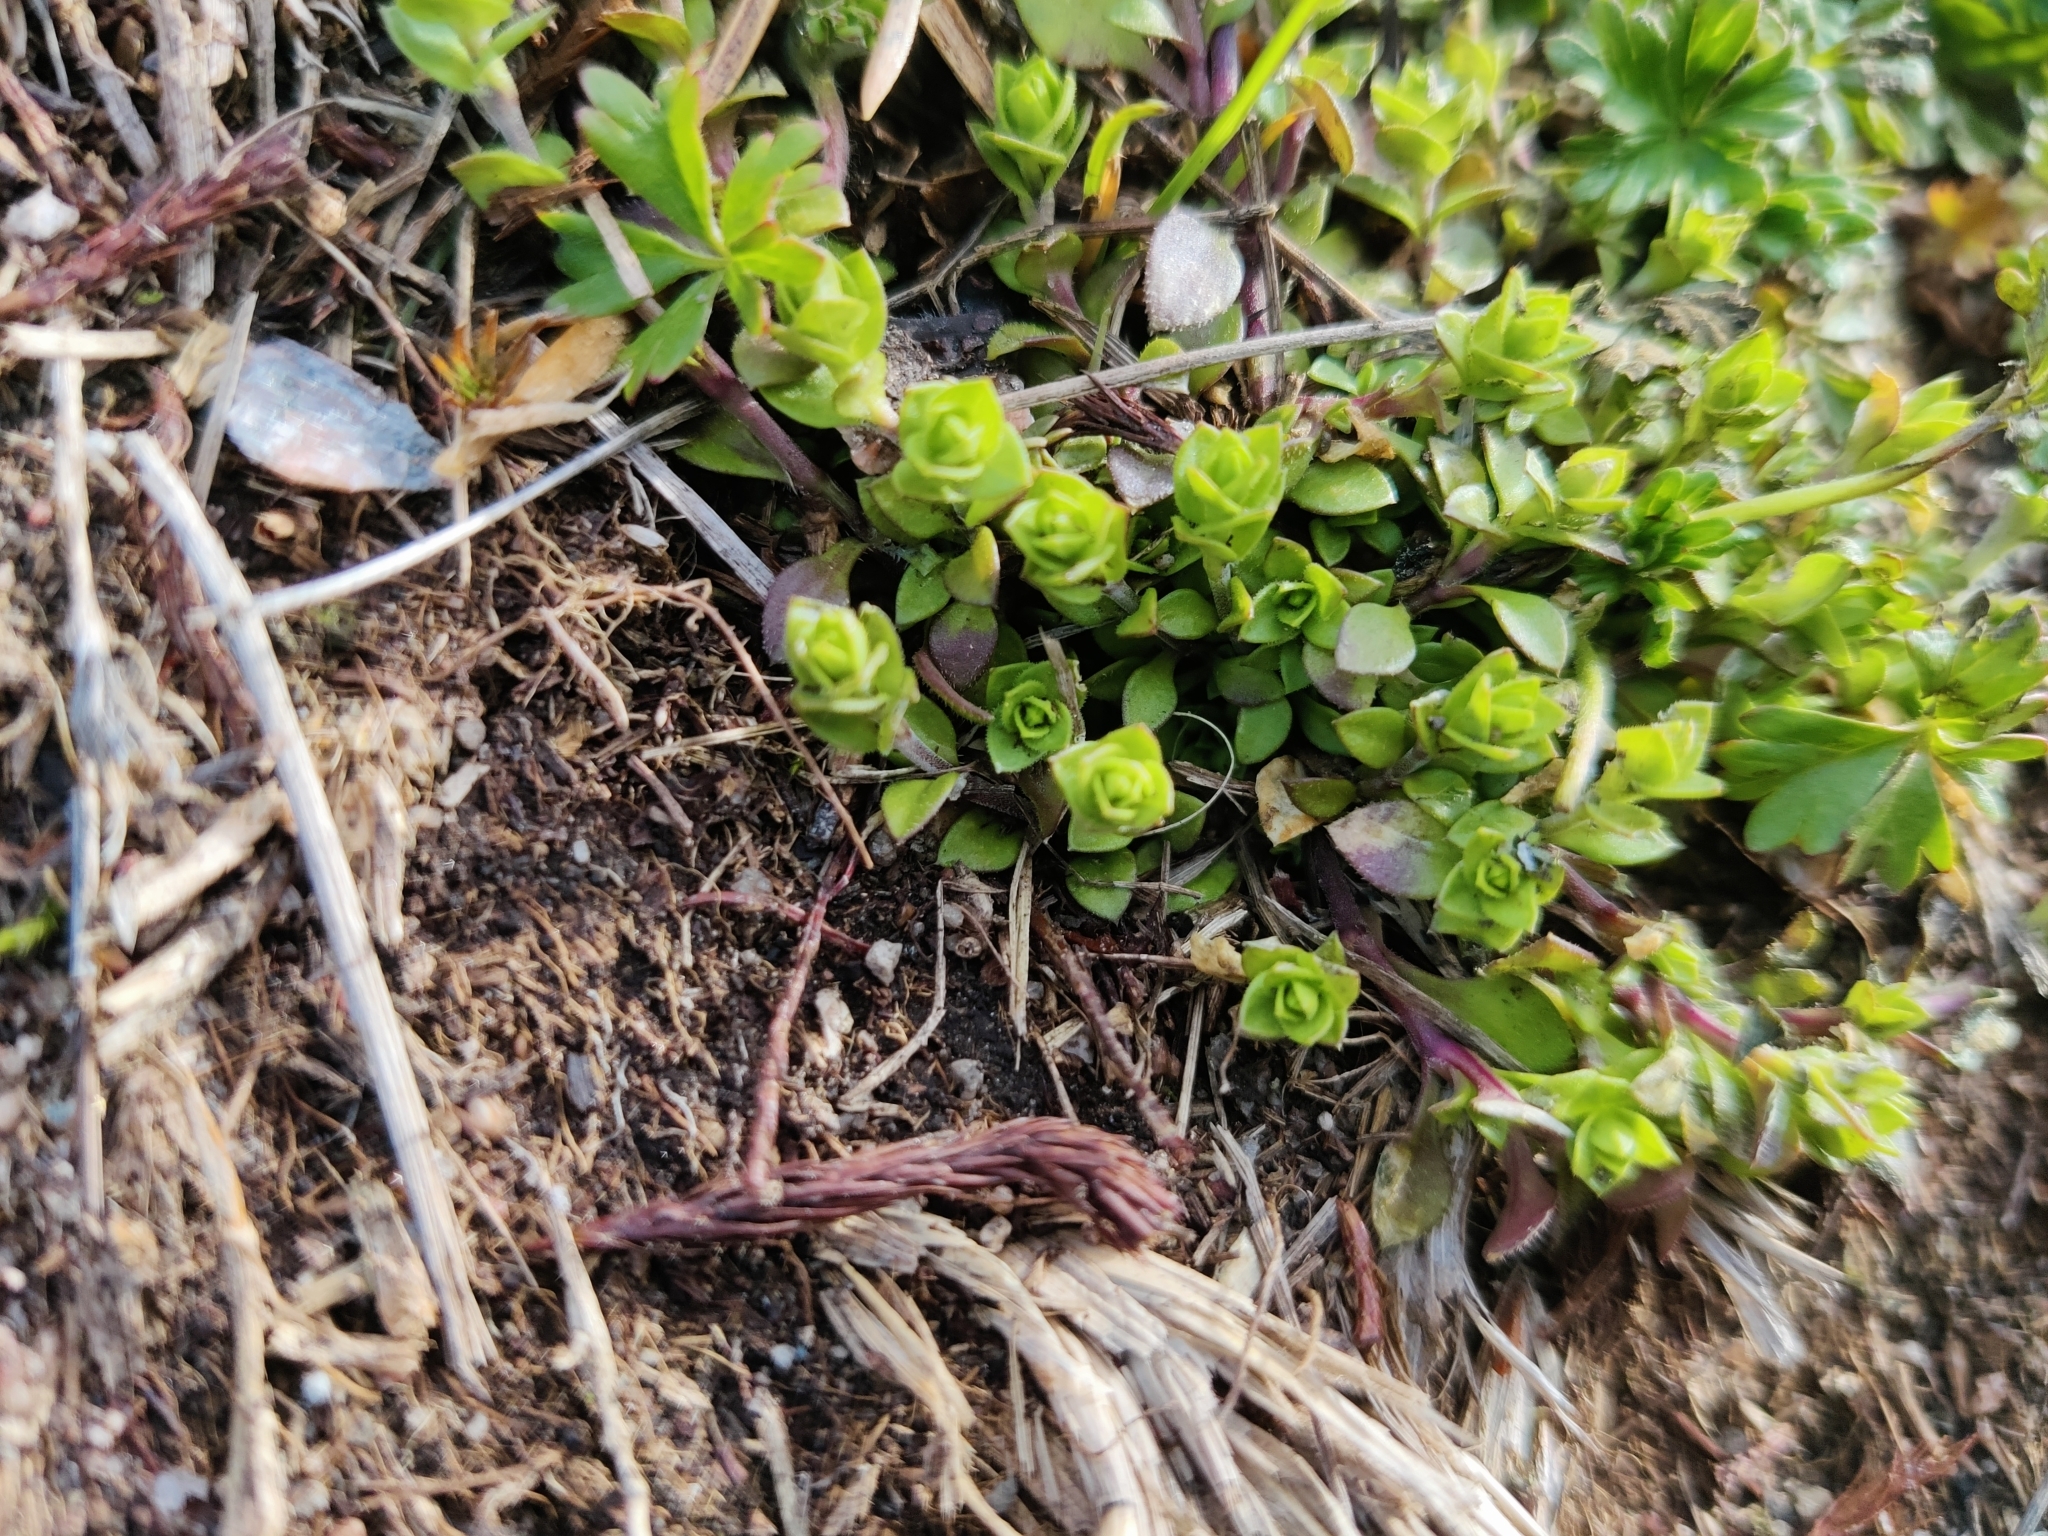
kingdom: Plantae
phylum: Tracheophyta
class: Magnoliopsida
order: Caryophyllales
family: Caryophyllaceae
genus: Arenaria
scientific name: Arenaria serpyllifolia
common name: Thyme-leaved sandwort
